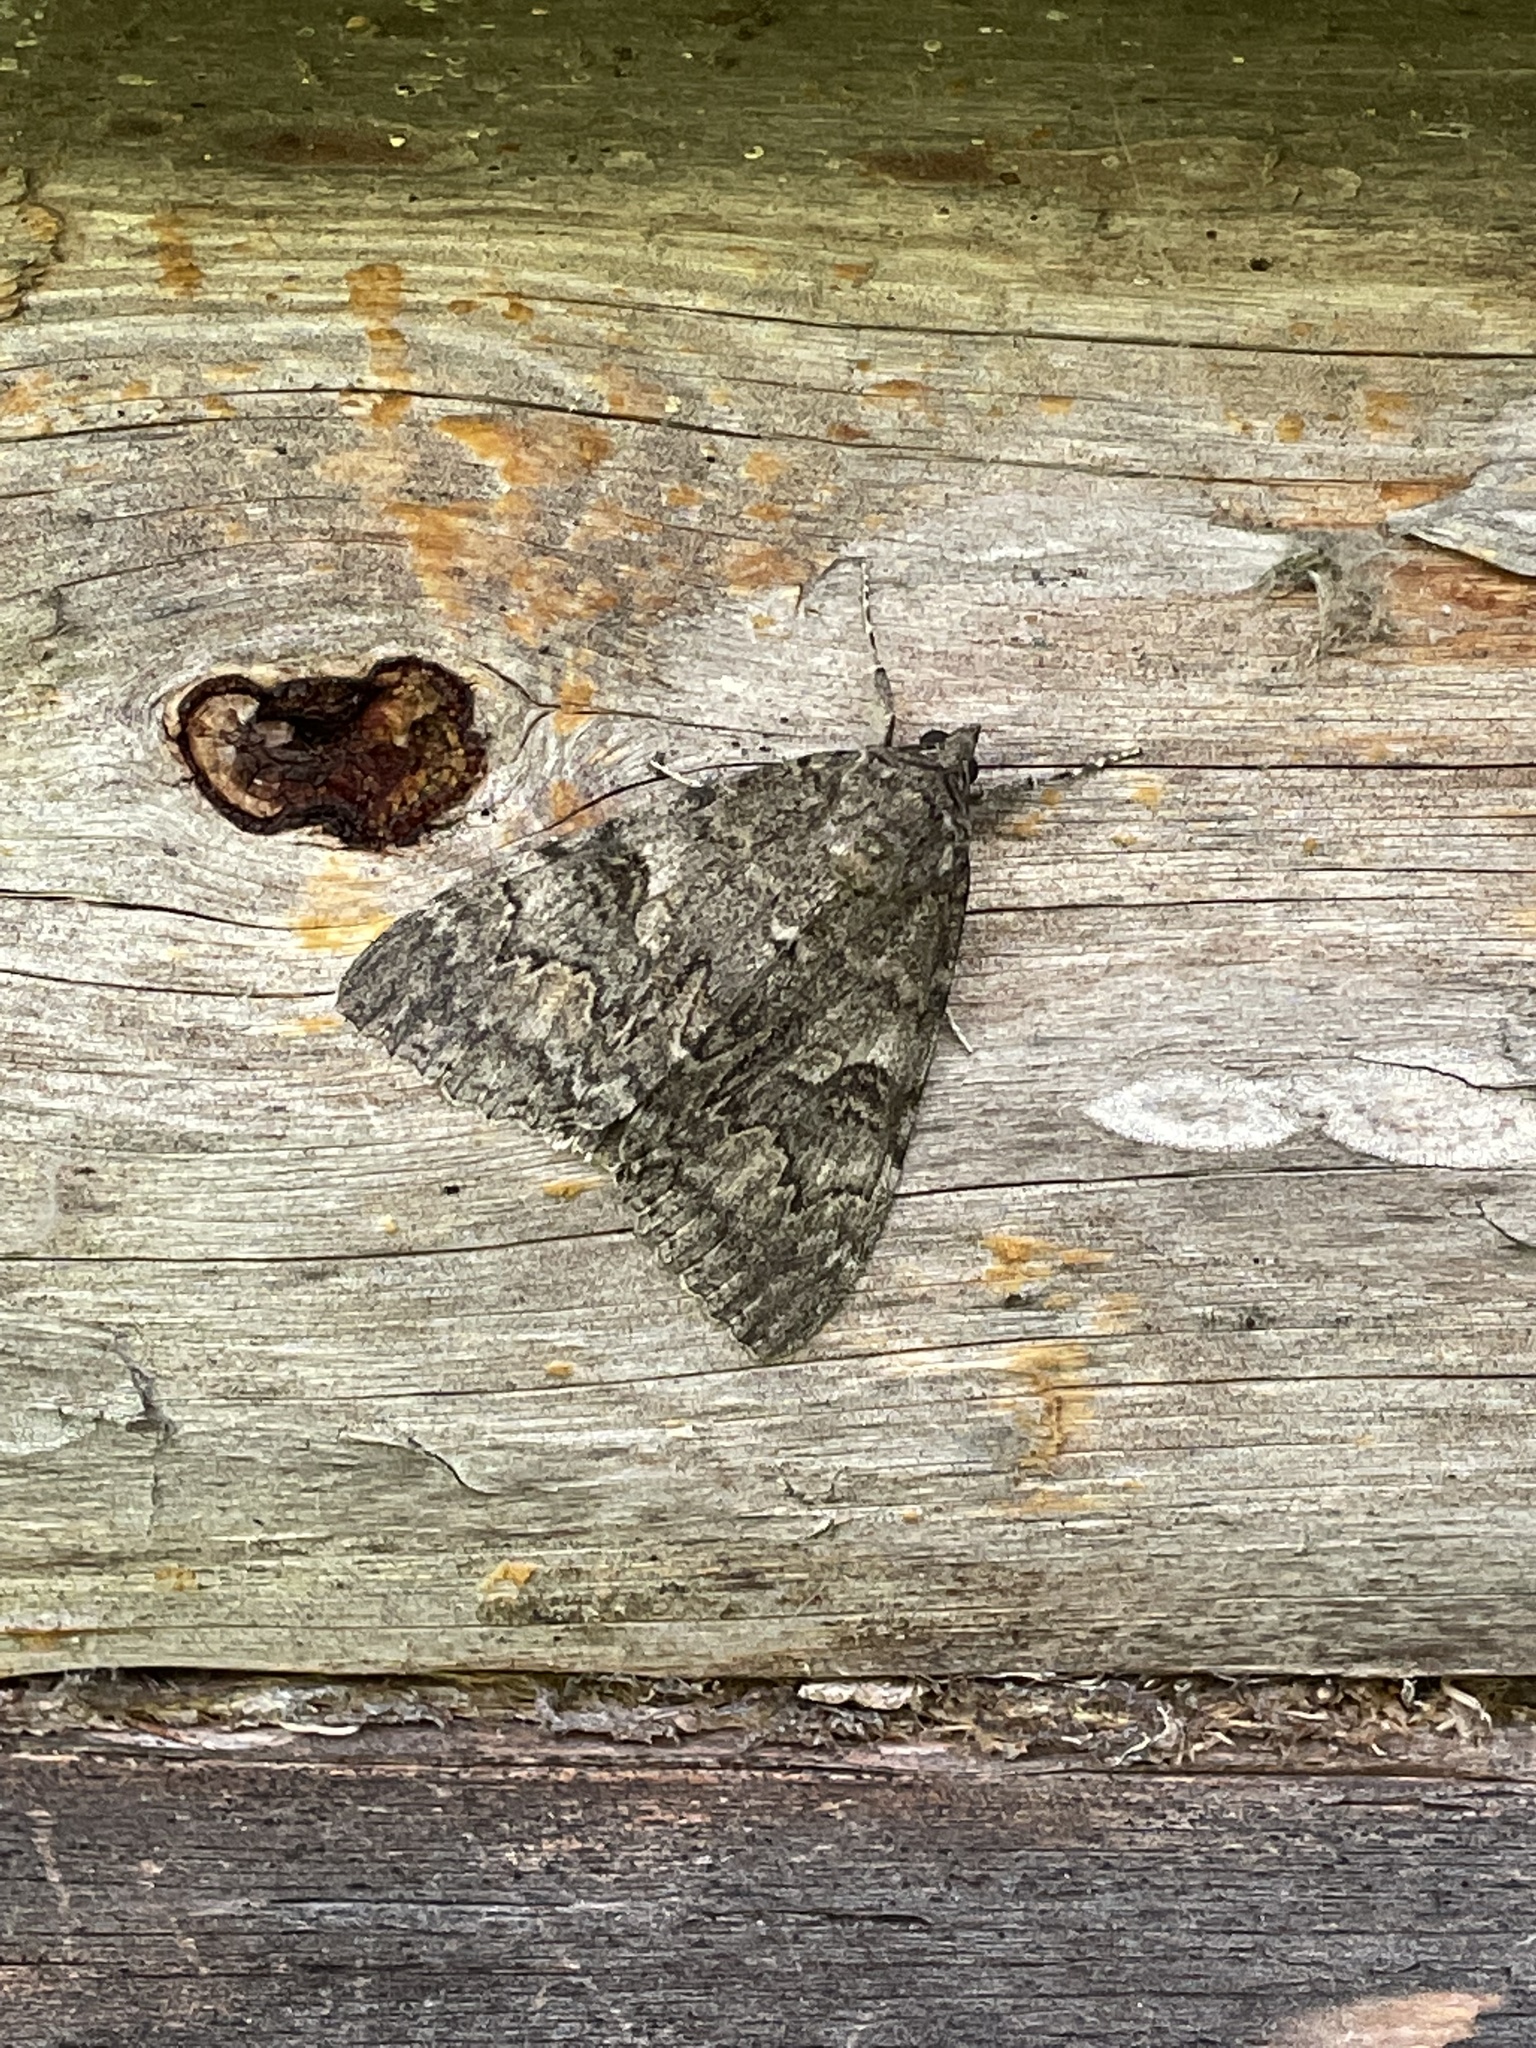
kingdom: Animalia
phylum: Arthropoda
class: Insecta
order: Lepidoptera
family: Erebidae
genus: Catocala
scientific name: Catocala nupta
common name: Red underwing
